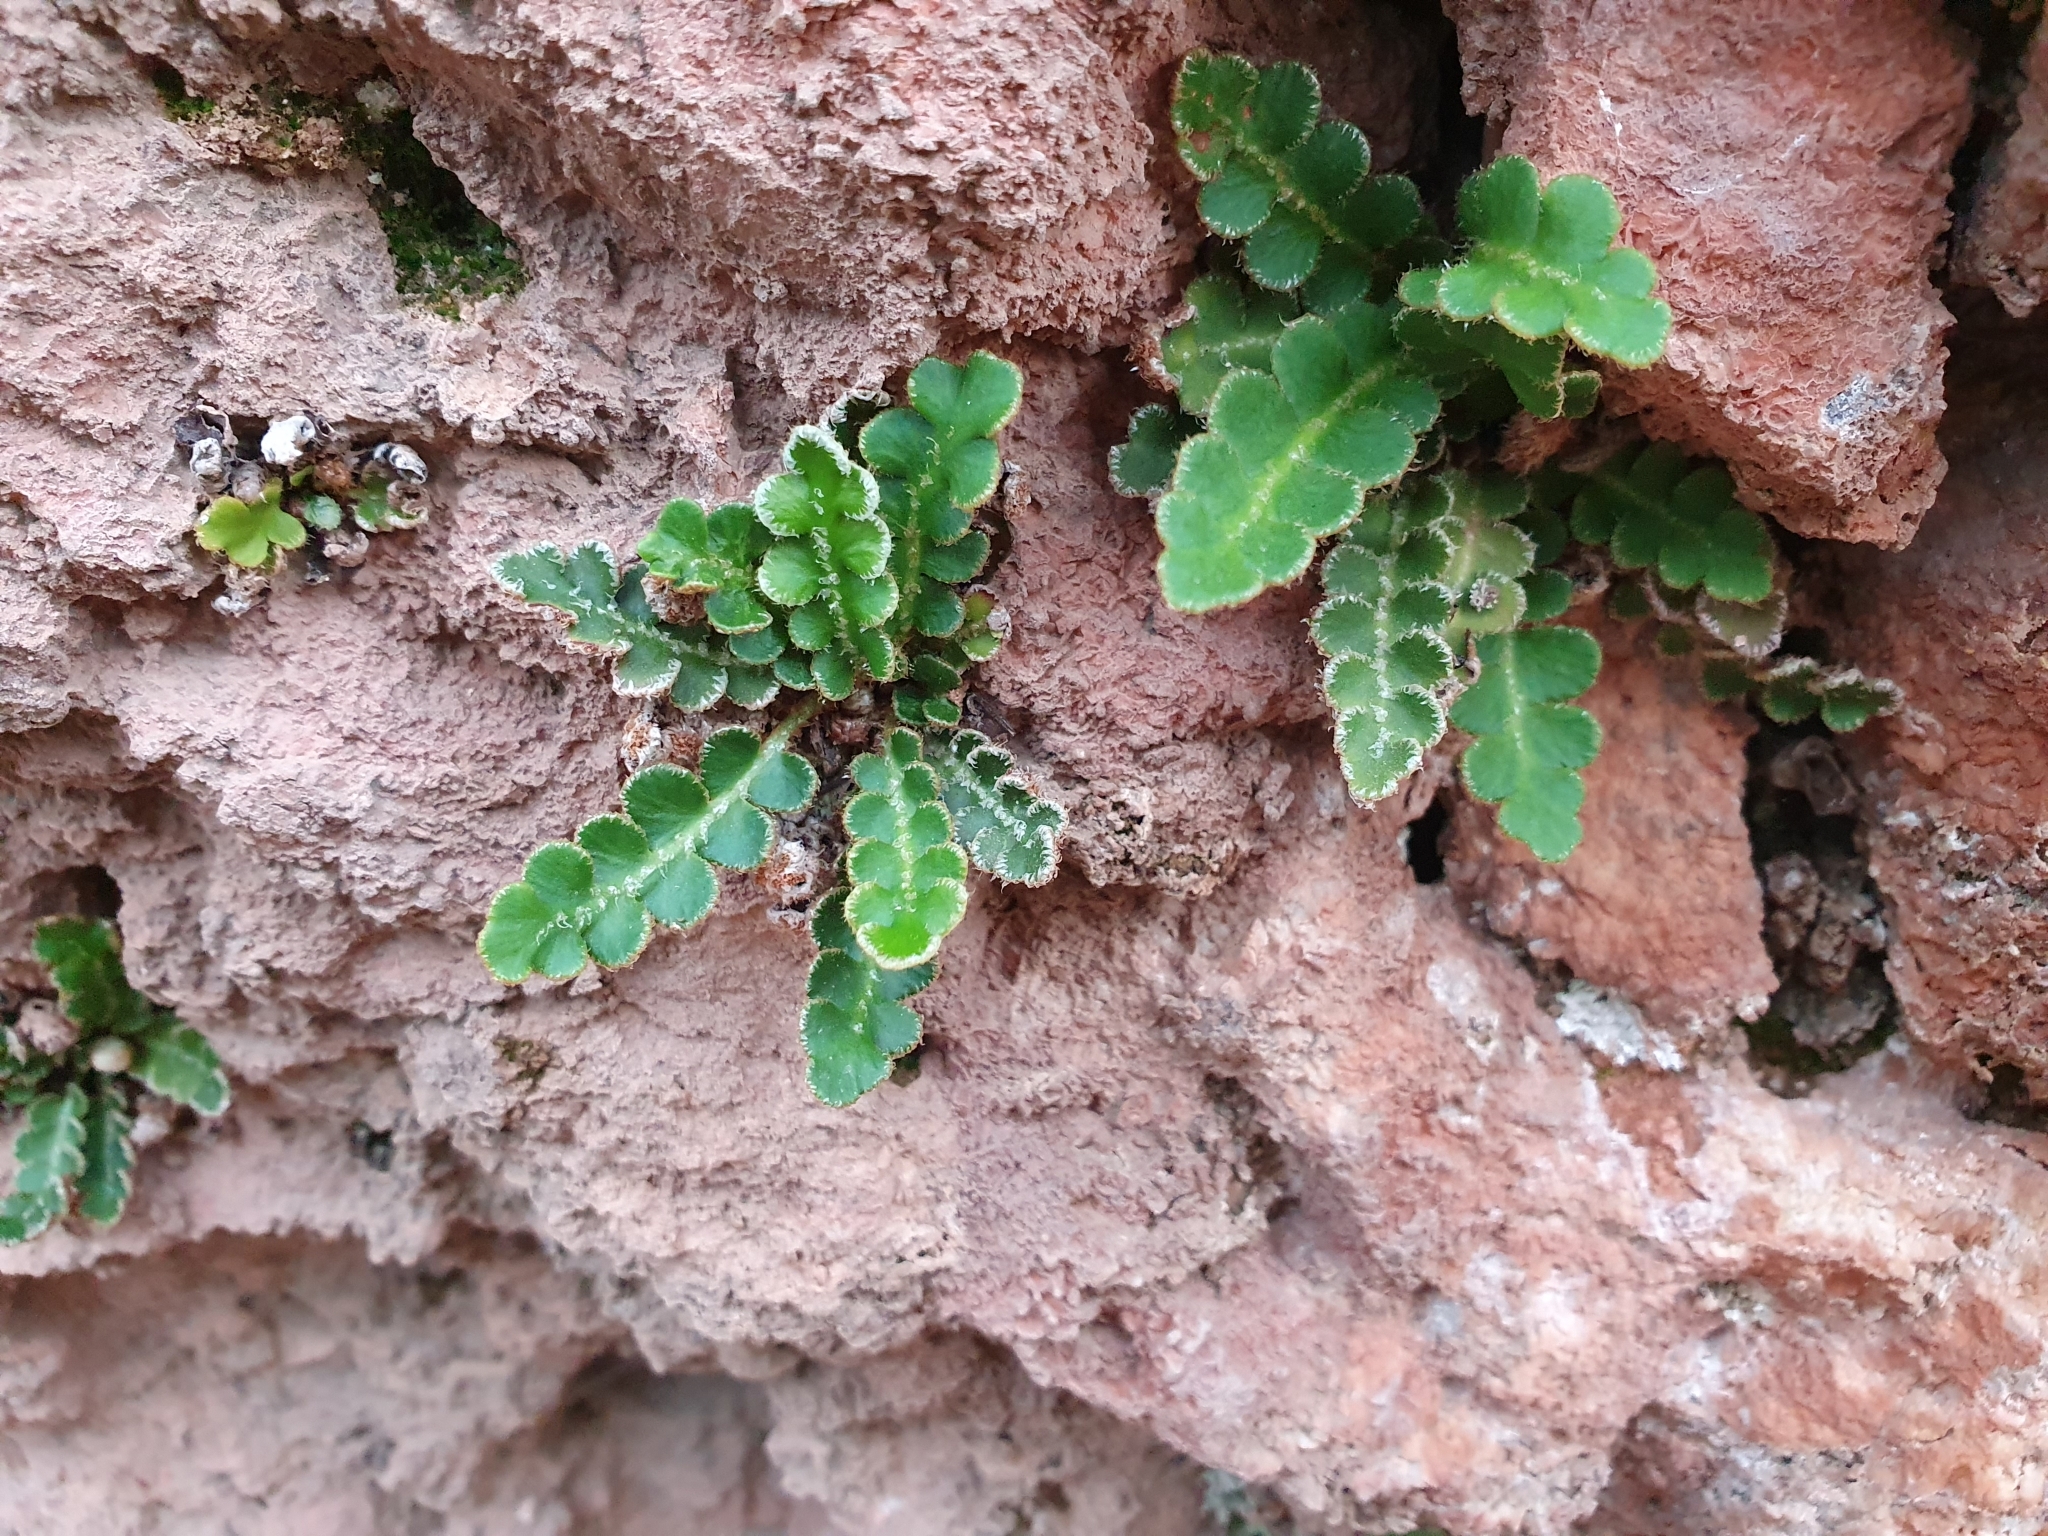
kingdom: Plantae
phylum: Tracheophyta
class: Polypodiopsida
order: Polypodiales
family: Aspleniaceae
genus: Asplenium
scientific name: Asplenium ceterach
